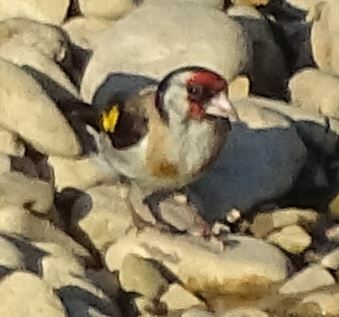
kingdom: Animalia
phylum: Chordata
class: Aves
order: Passeriformes
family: Fringillidae
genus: Carduelis
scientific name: Carduelis carduelis
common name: European goldfinch
